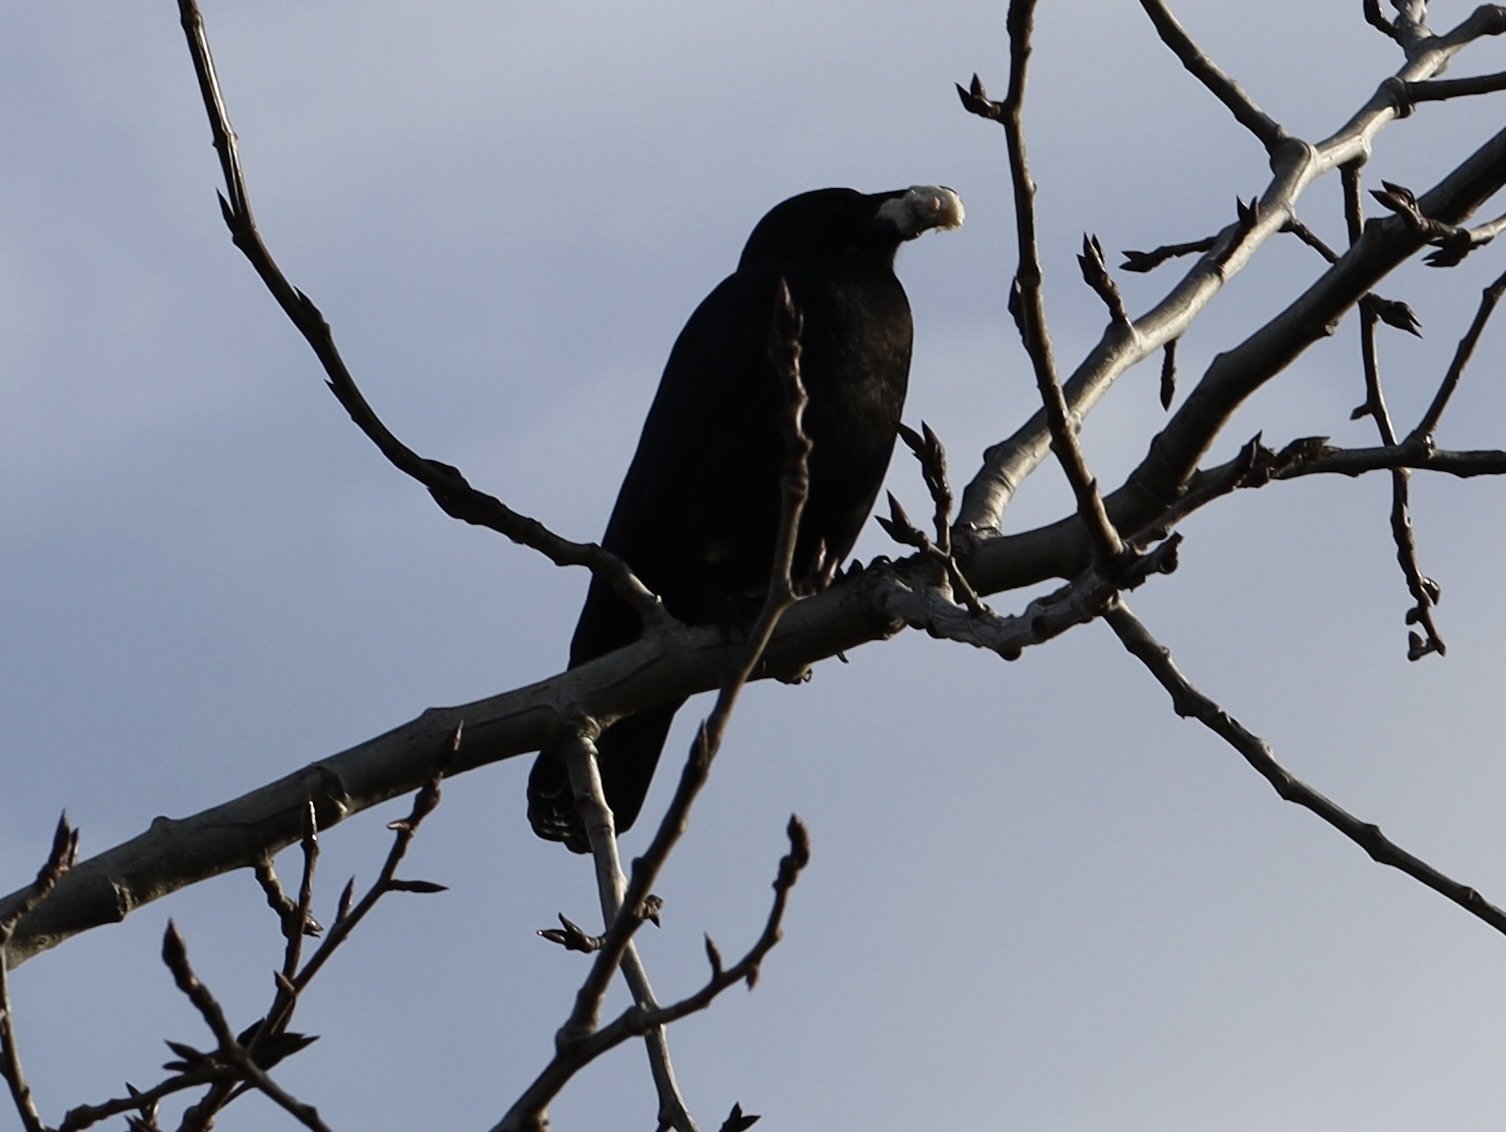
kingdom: Animalia
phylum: Chordata
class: Aves
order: Passeriformes
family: Corvidae
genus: Corvus
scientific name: Corvus brachyrhynchos
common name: American crow
